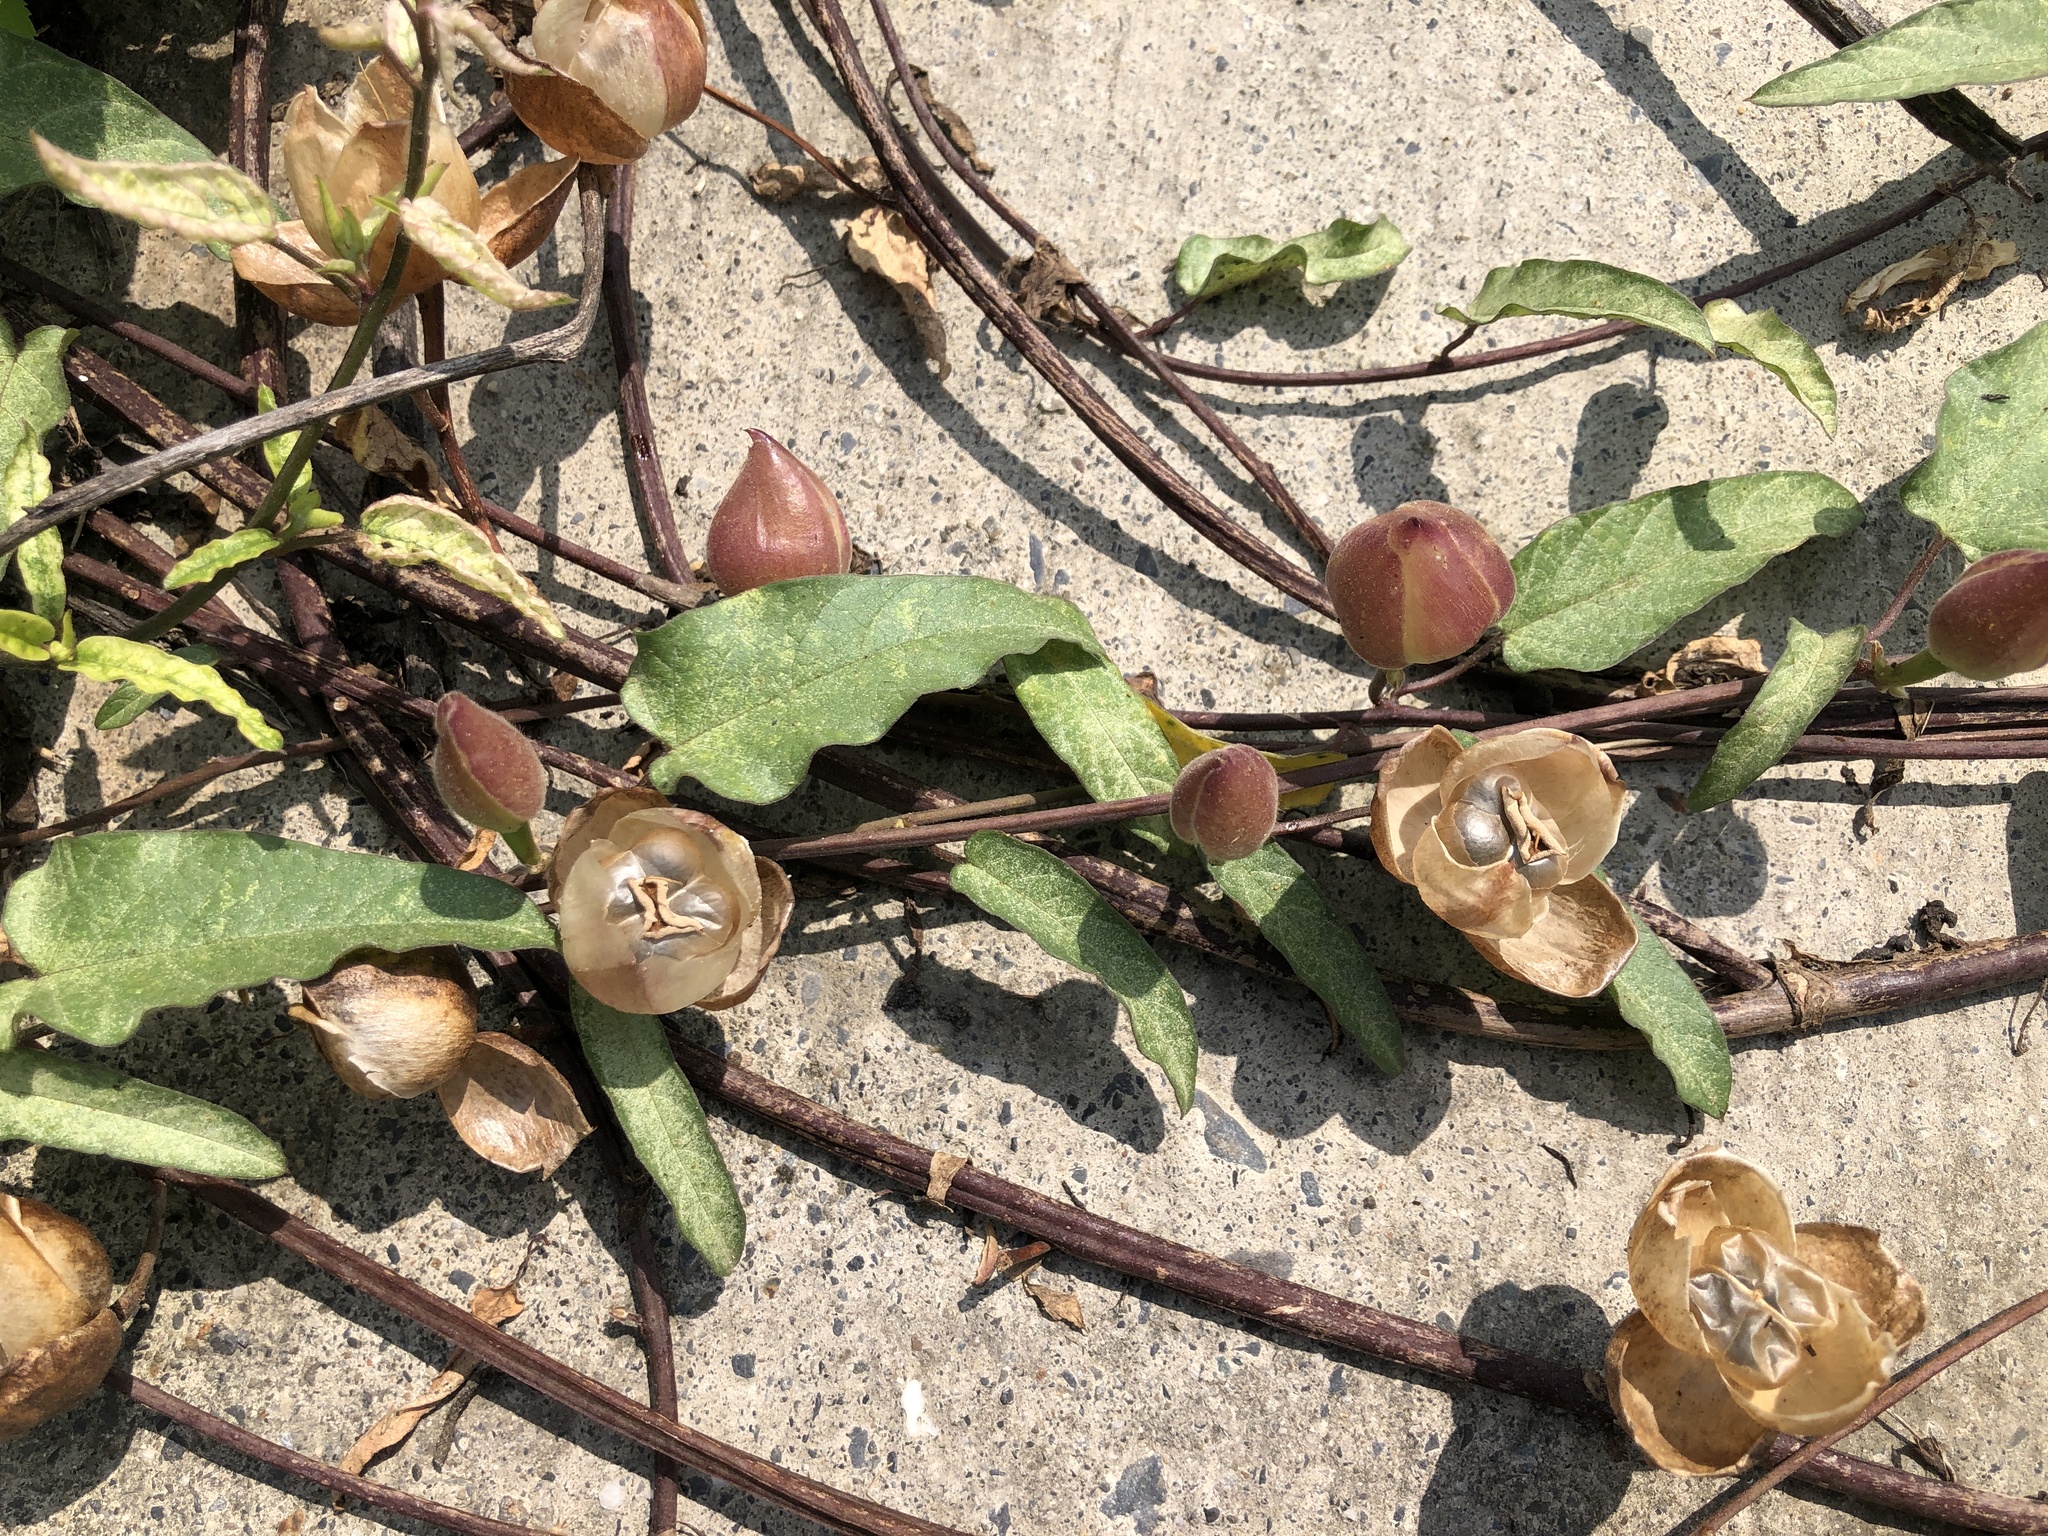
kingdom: Plantae
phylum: Tracheophyta
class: Magnoliopsida
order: Solanales
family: Convolvulaceae
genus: Operculina
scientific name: Operculina turpethum
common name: Transparent wood-rose
